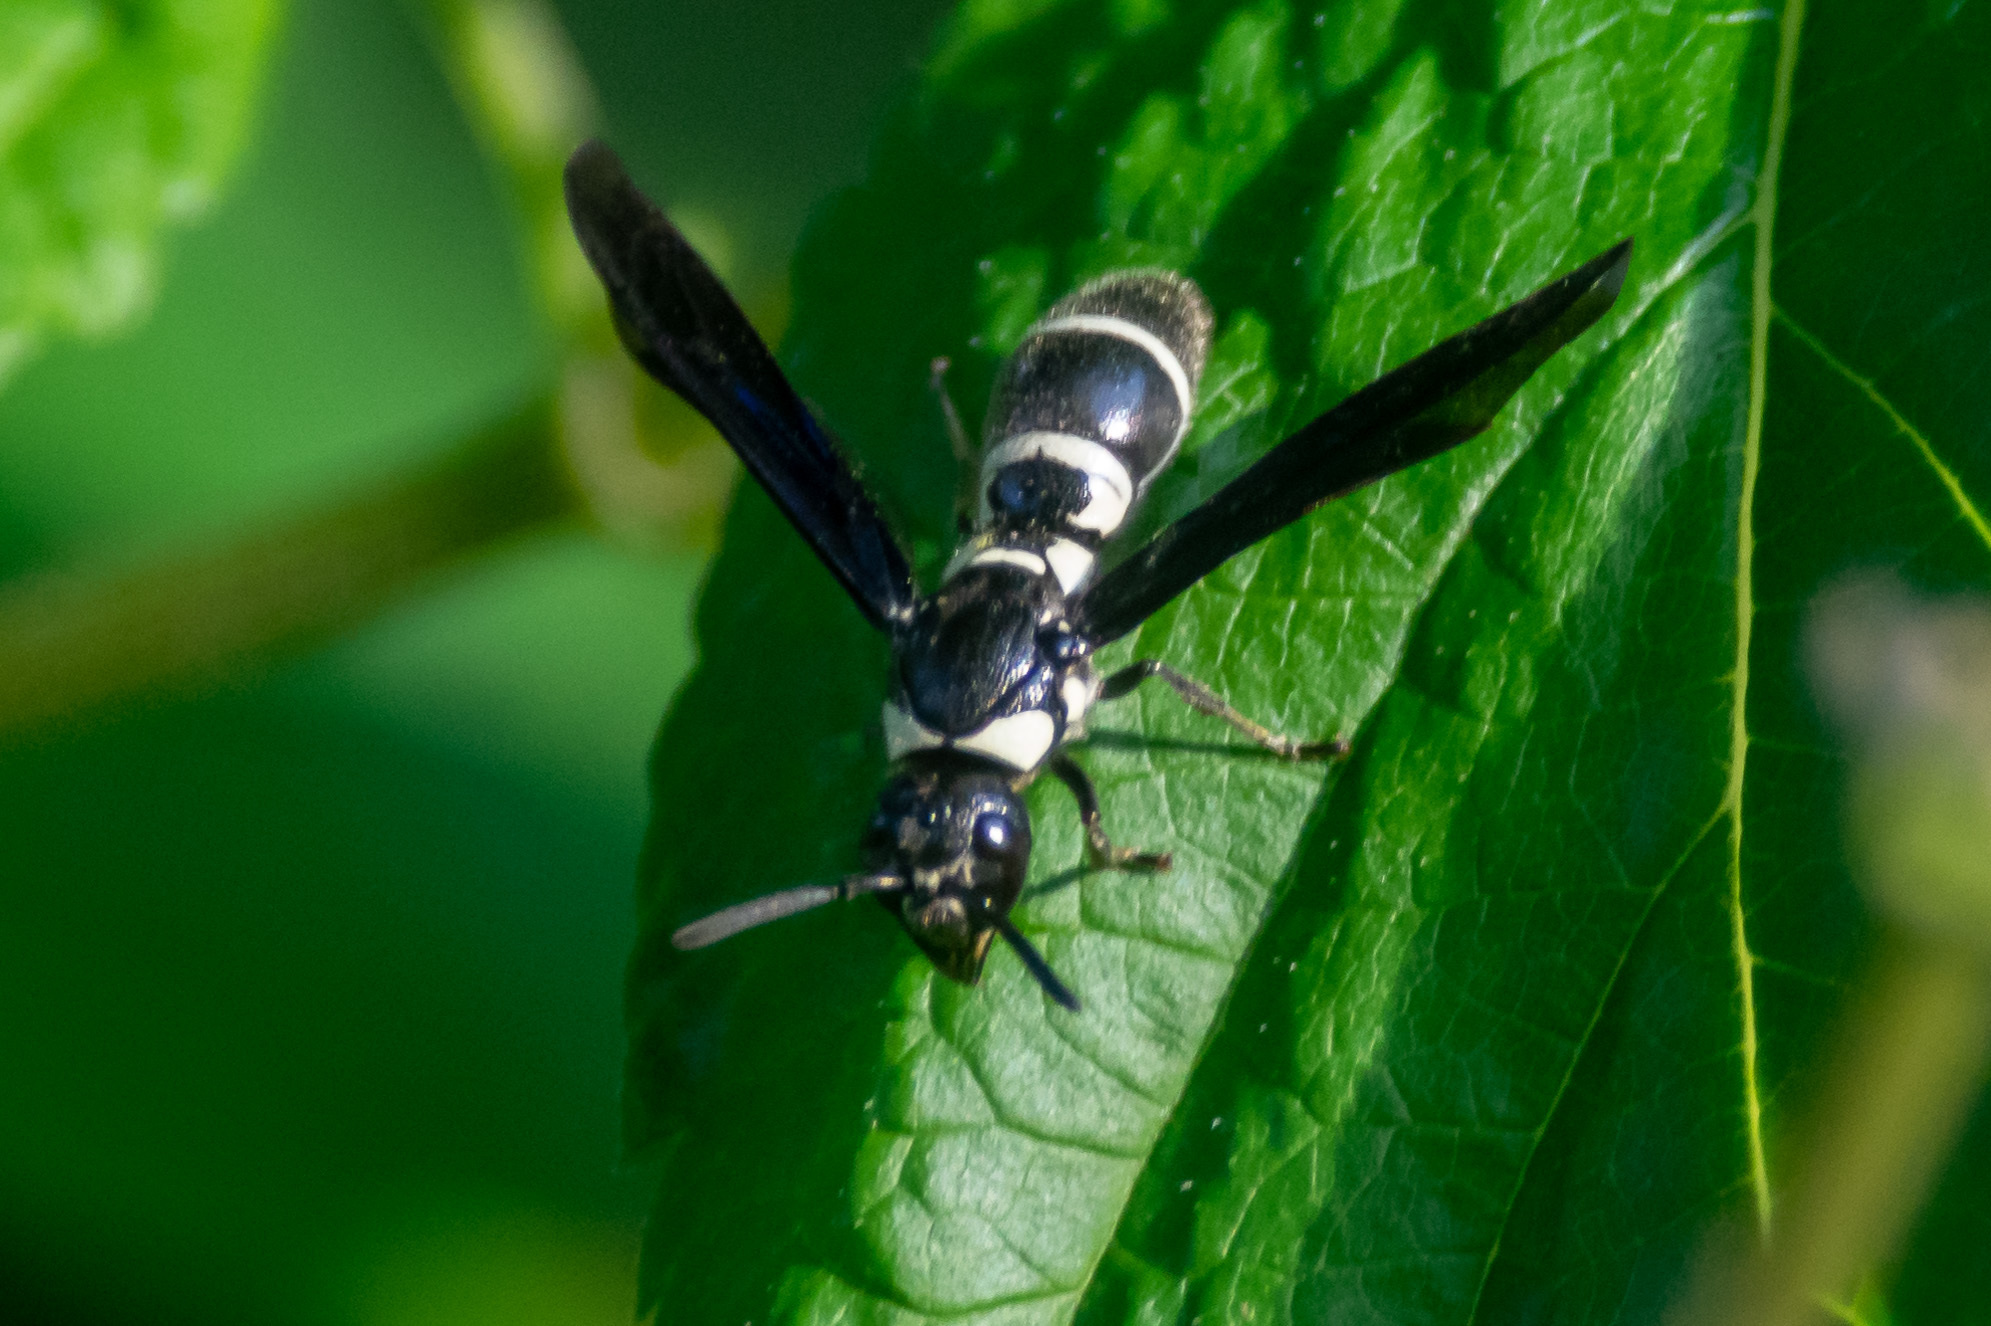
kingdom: Animalia
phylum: Arthropoda
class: Insecta
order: Hymenoptera
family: Eumenidae
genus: Pseudodynerus
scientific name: Pseudodynerus quadrisectus
